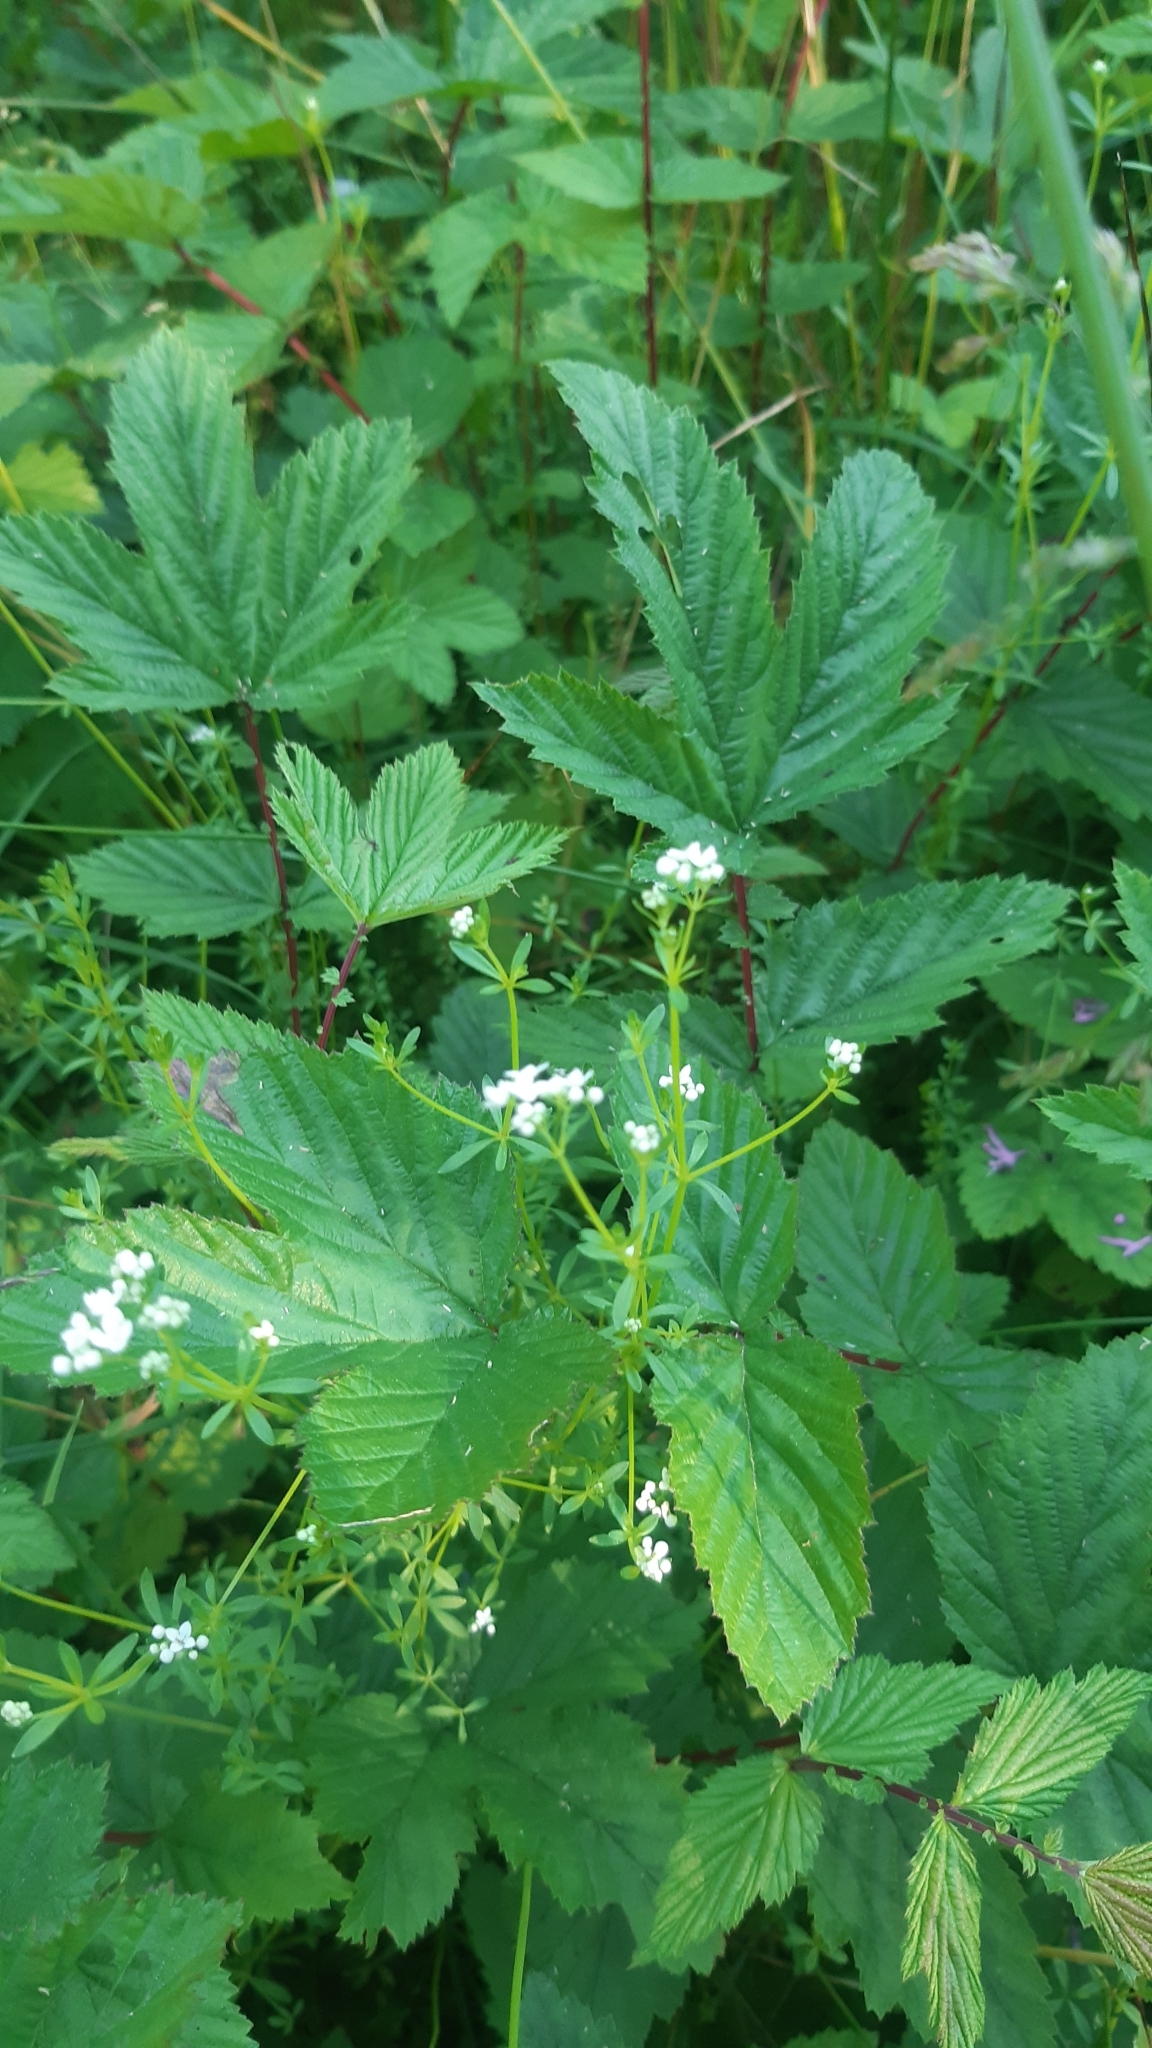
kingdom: Plantae
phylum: Tracheophyta
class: Magnoliopsida
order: Gentianales
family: Rubiaceae
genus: Galium
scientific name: Galium palustre
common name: Common marsh-bedstraw
